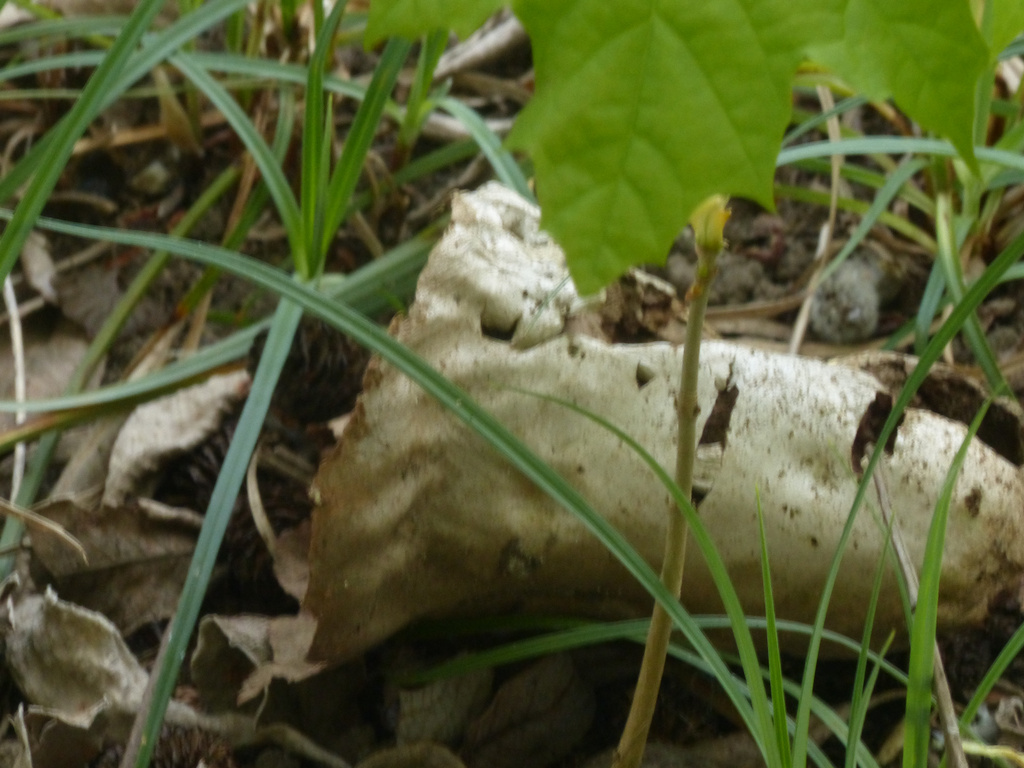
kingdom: Fungi
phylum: Basidiomycota
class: Agaricomycetes
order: Agaricales
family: Lycoperdaceae
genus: Lycoperdon
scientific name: Lycoperdon excipuliforme
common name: Pestle puffball
